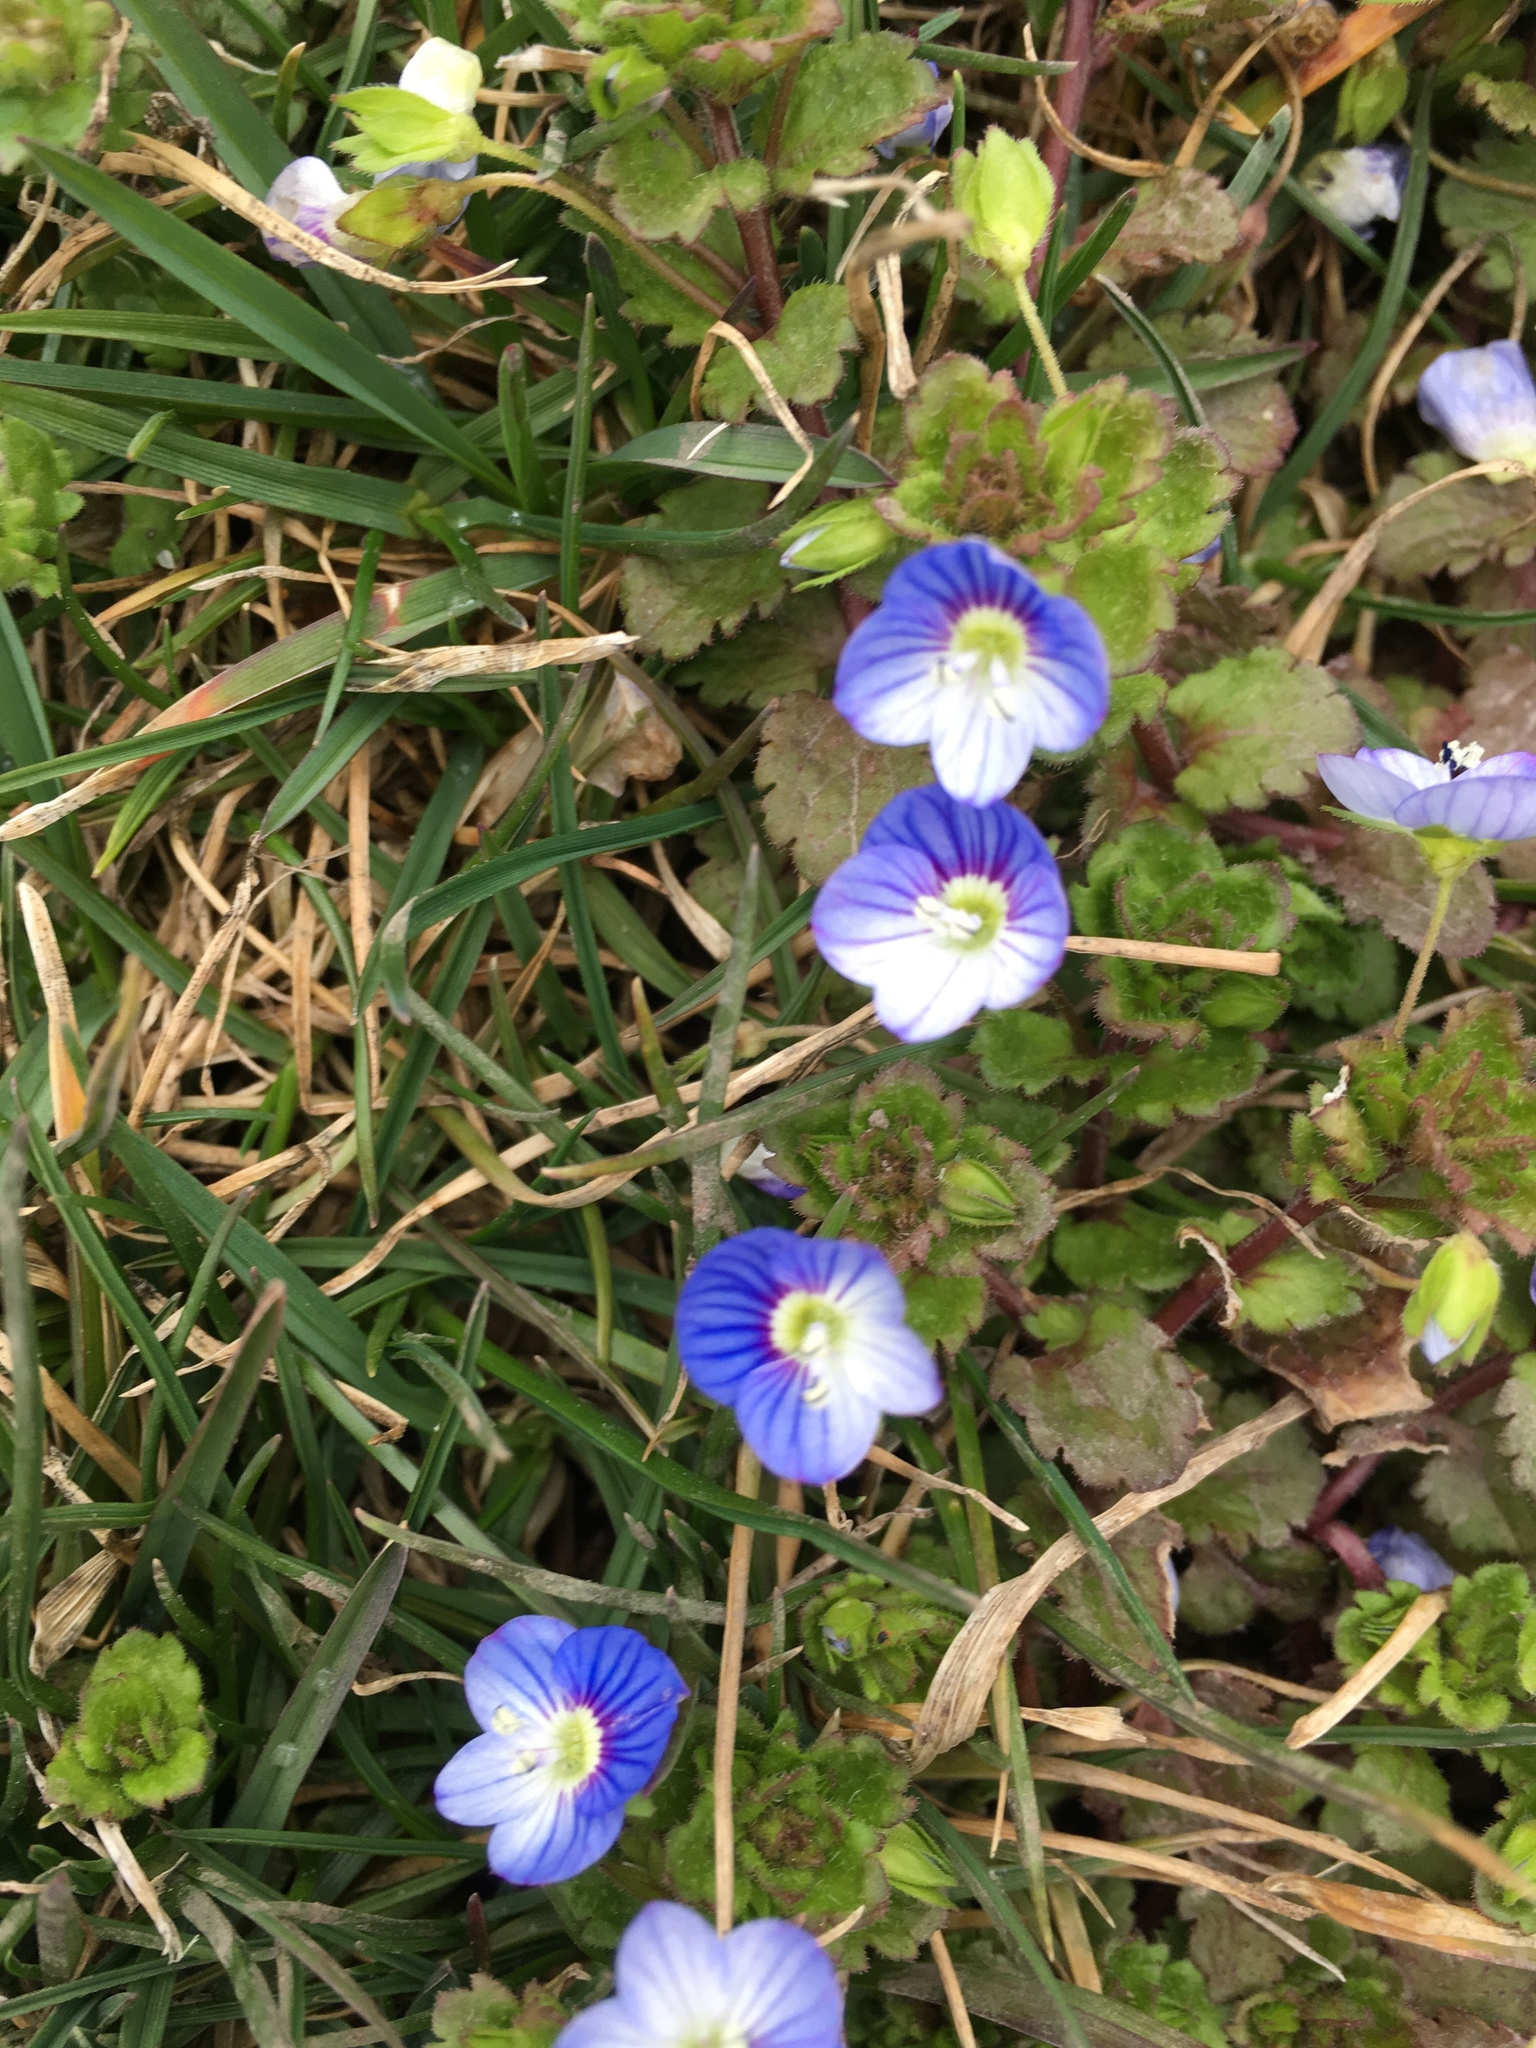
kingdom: Plantae
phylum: Tracheophyta
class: Magnoliopsida
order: Lamiales
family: Plantaginaceae
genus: Veronica
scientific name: Veronica persica
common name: Common field-speedwell
